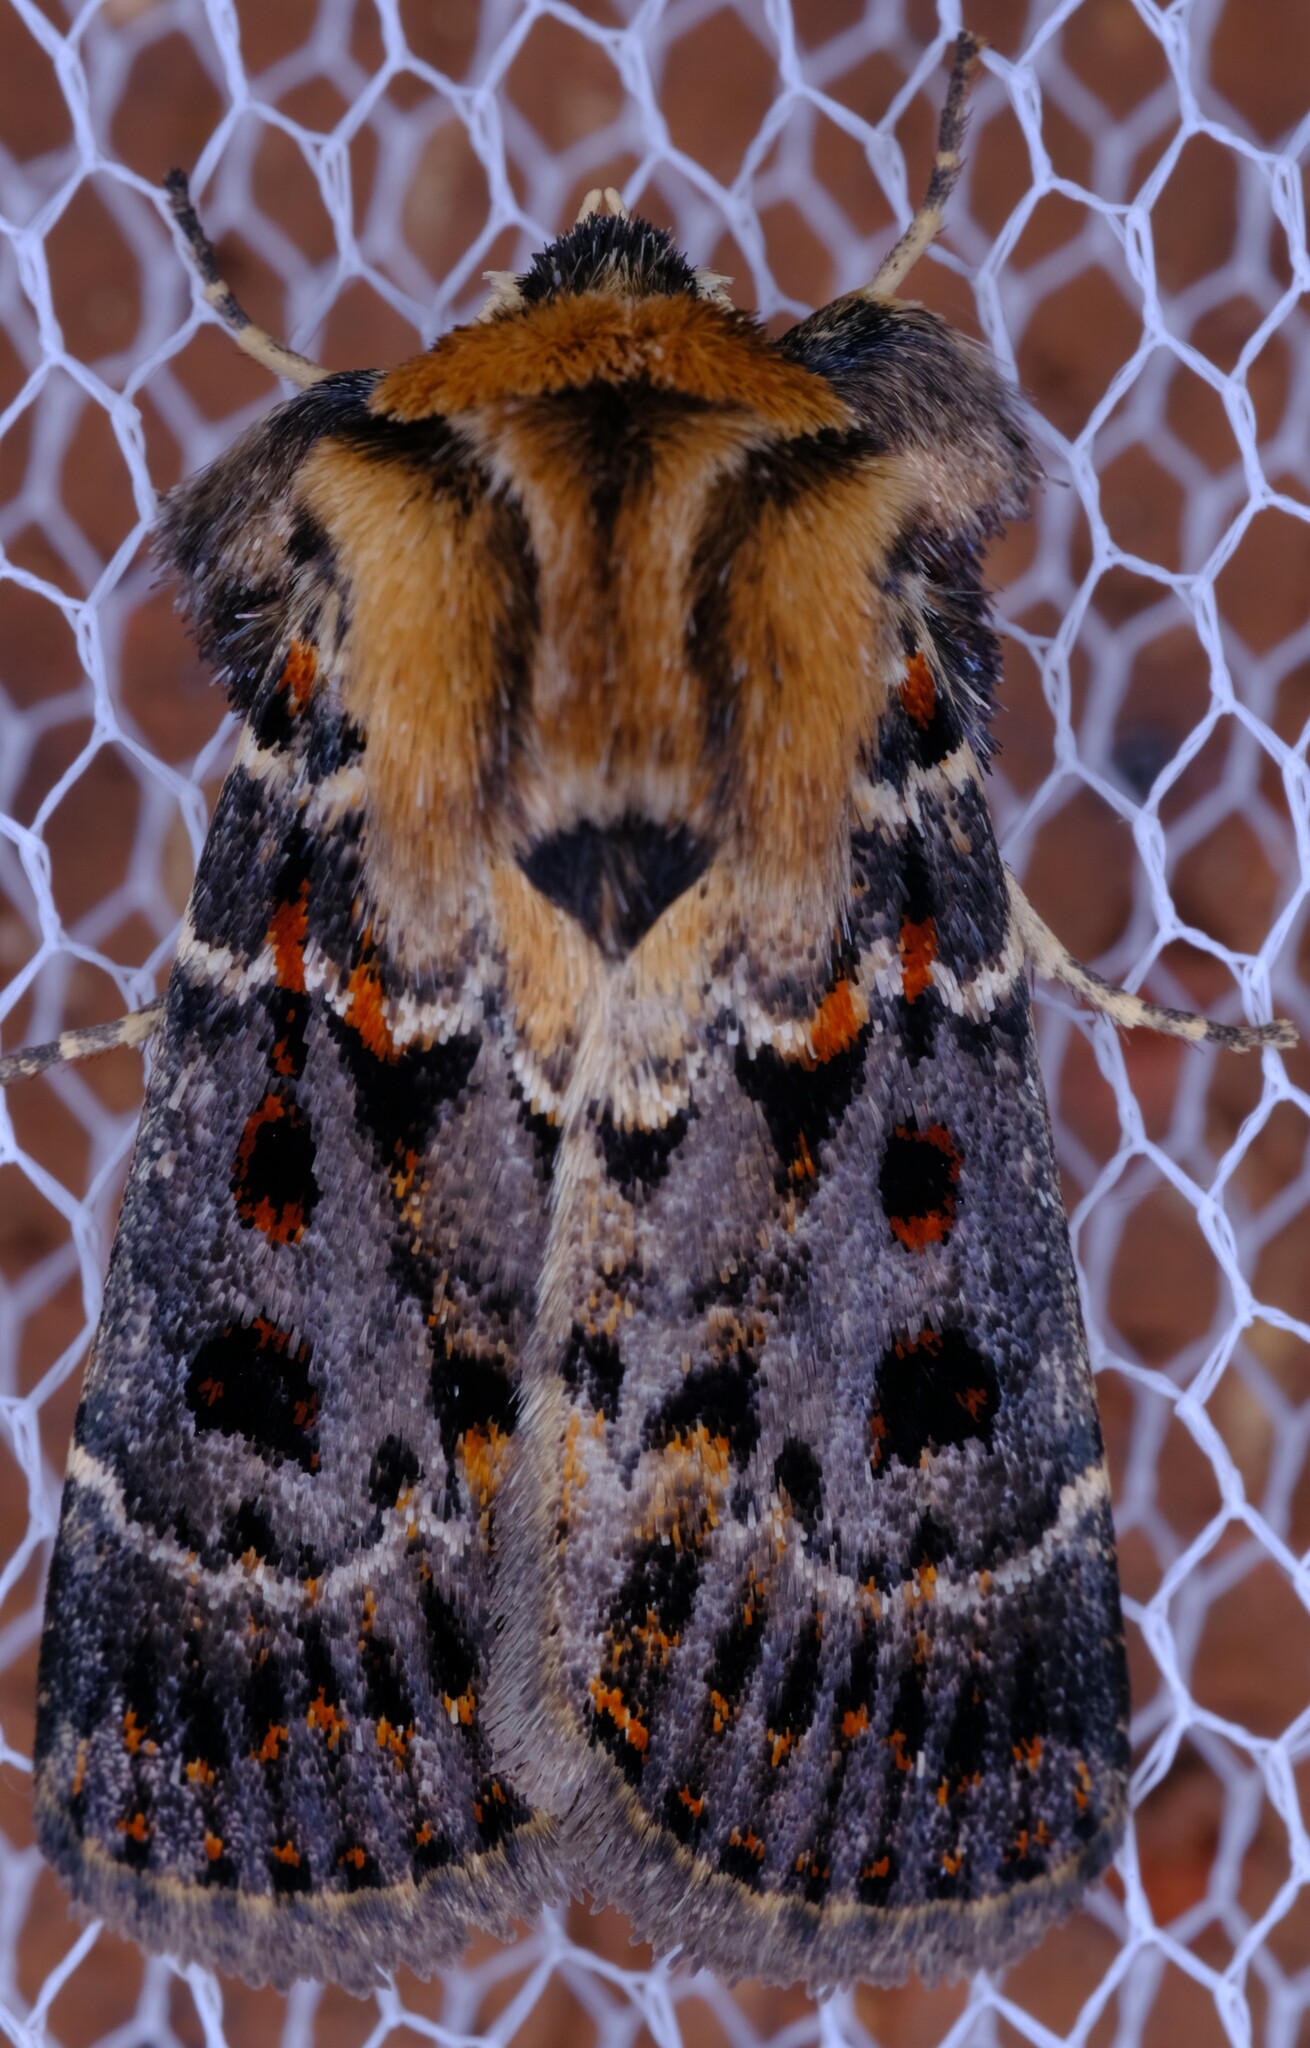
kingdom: Animalia
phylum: Arthropoda
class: Insecta
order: Lepidoptera
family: Noctuidae
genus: Proteuxoa
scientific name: Proteuxoa sanguinipuncta
